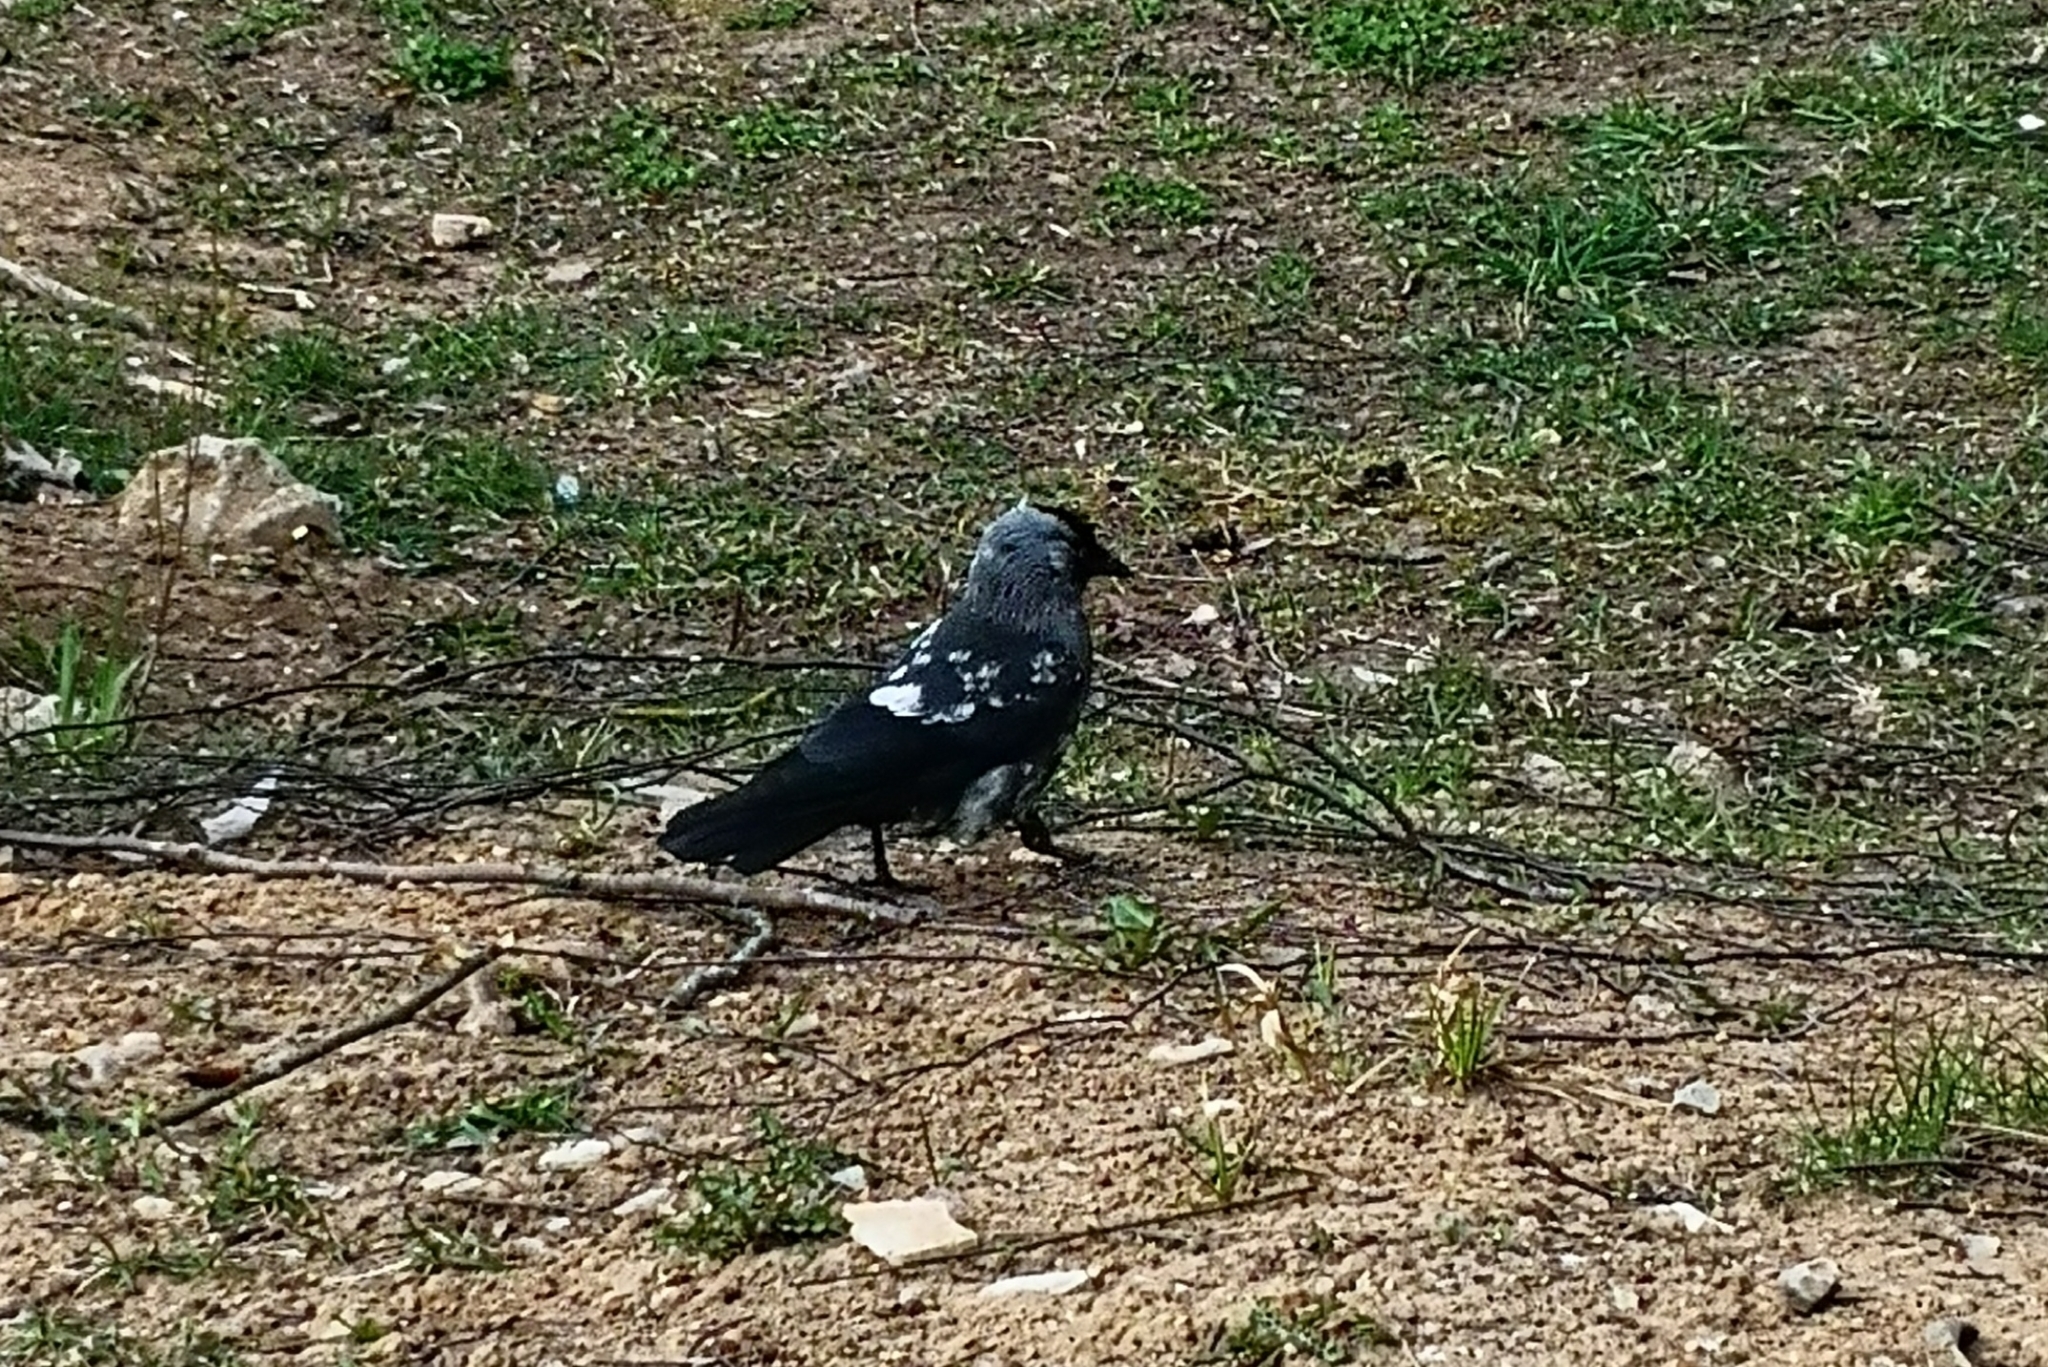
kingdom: Animalia
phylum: Chordata
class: Aves
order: Passeriformes
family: Corvidae
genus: Coloeus
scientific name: Coloeus monedula
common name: Western jackdaw
